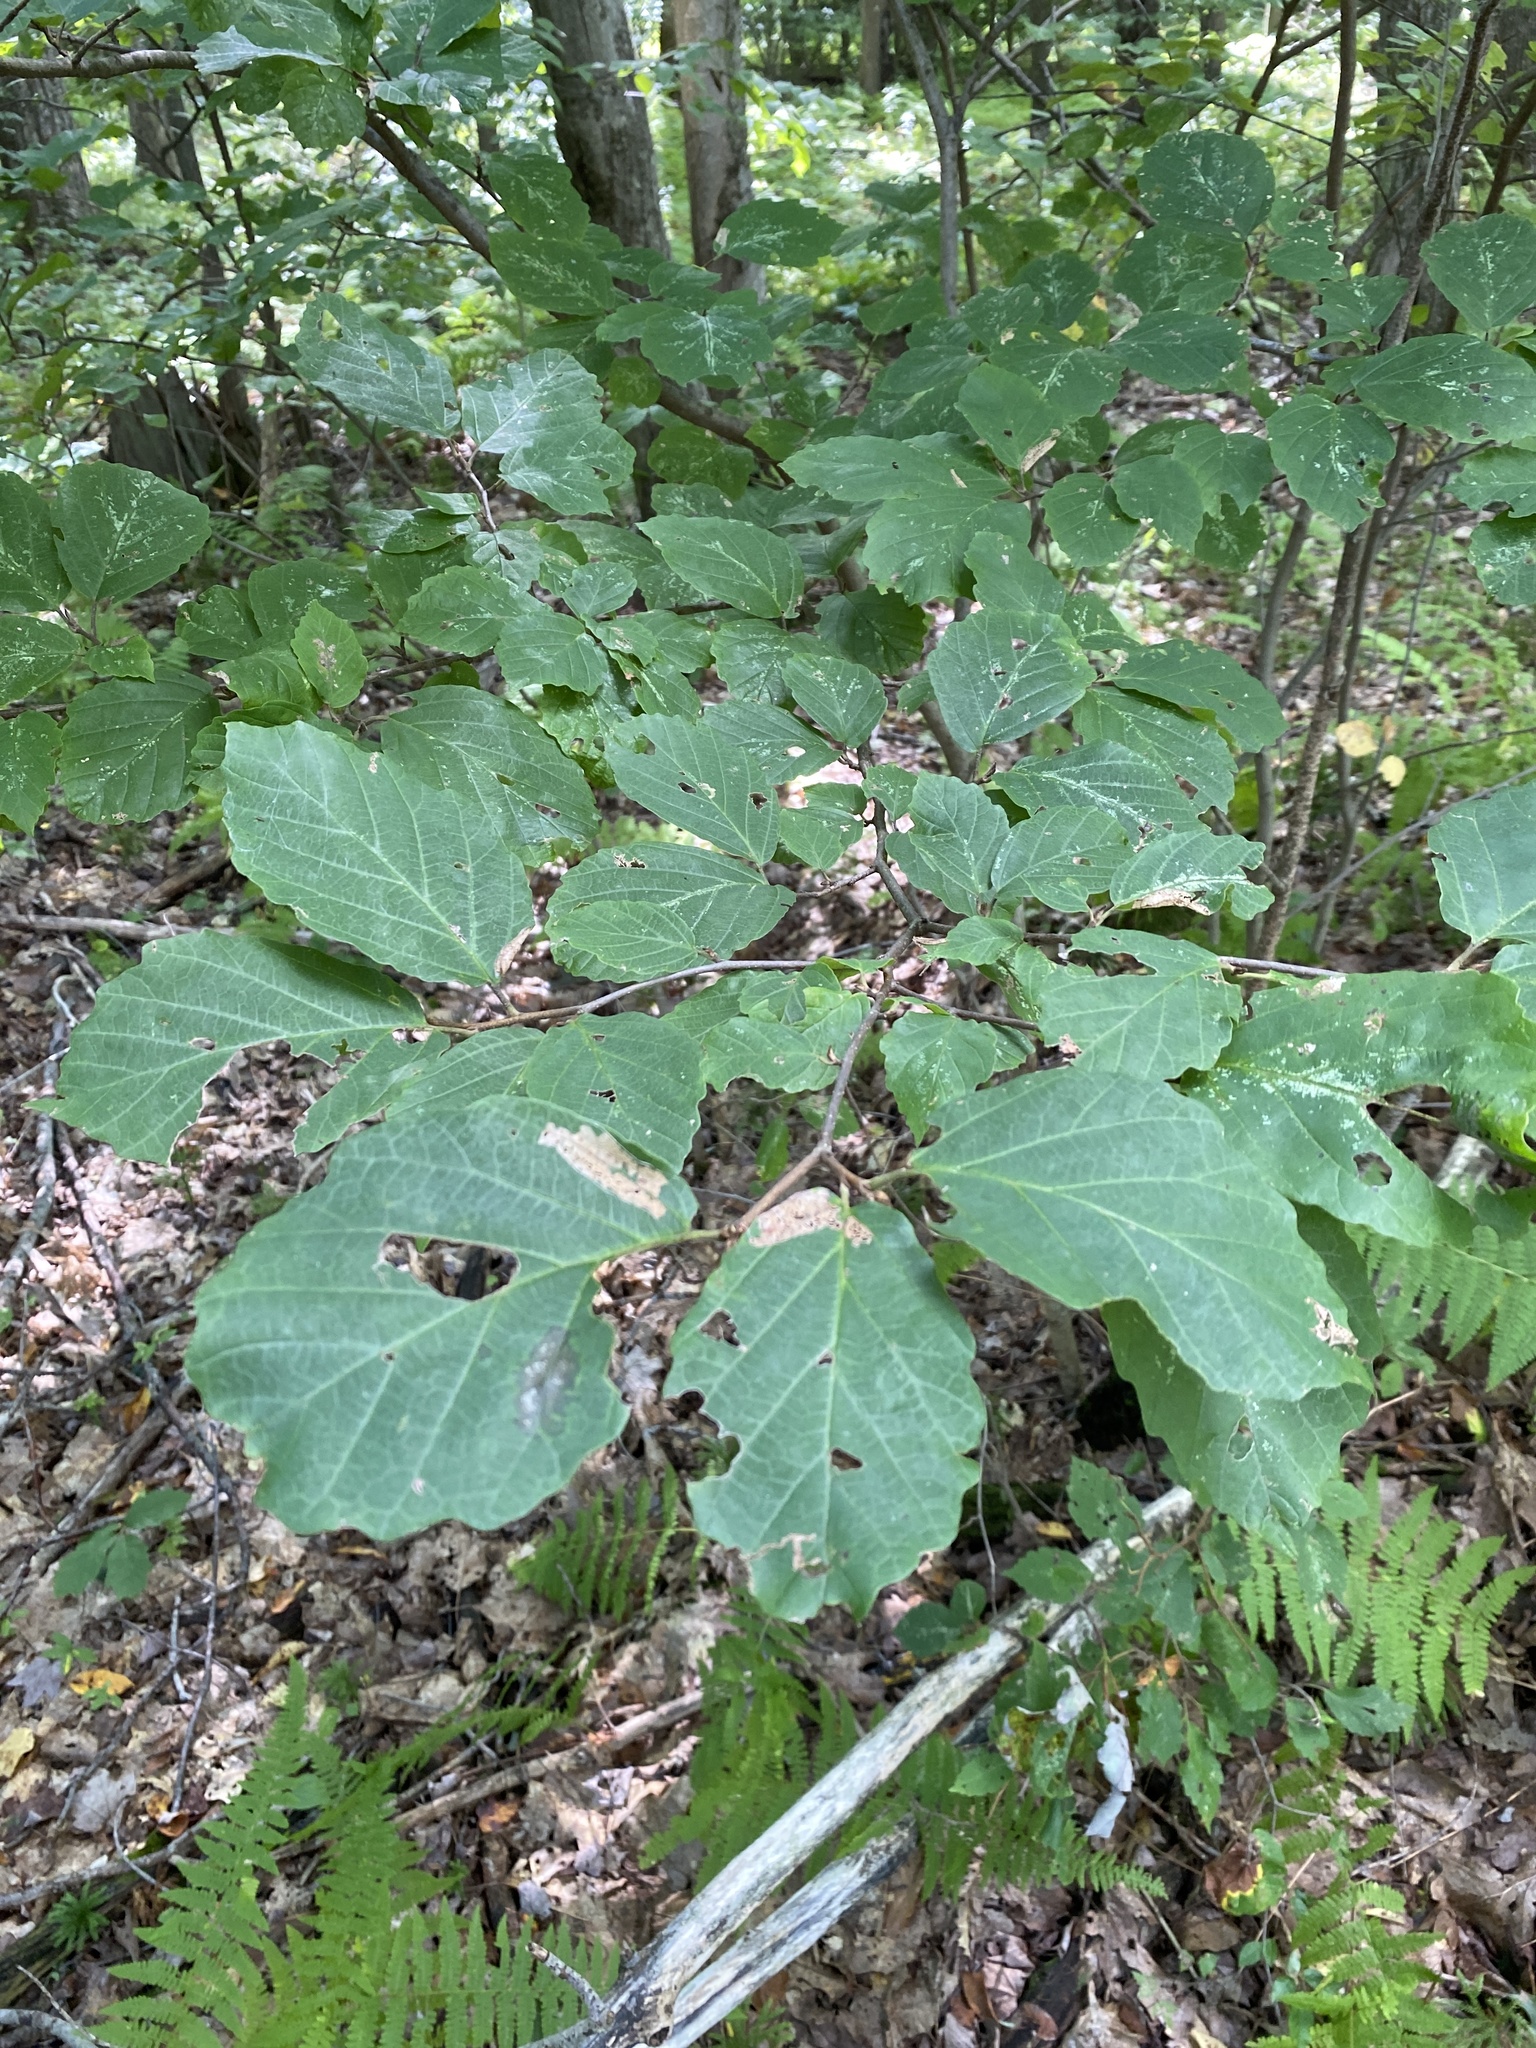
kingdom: Plantae
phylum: Tracheophyta
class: Magnoliopsida
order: Saxifragales
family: Hamamelidaceae
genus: Hamamelis
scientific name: Hamamelis virginiana
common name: Witch-hazel
